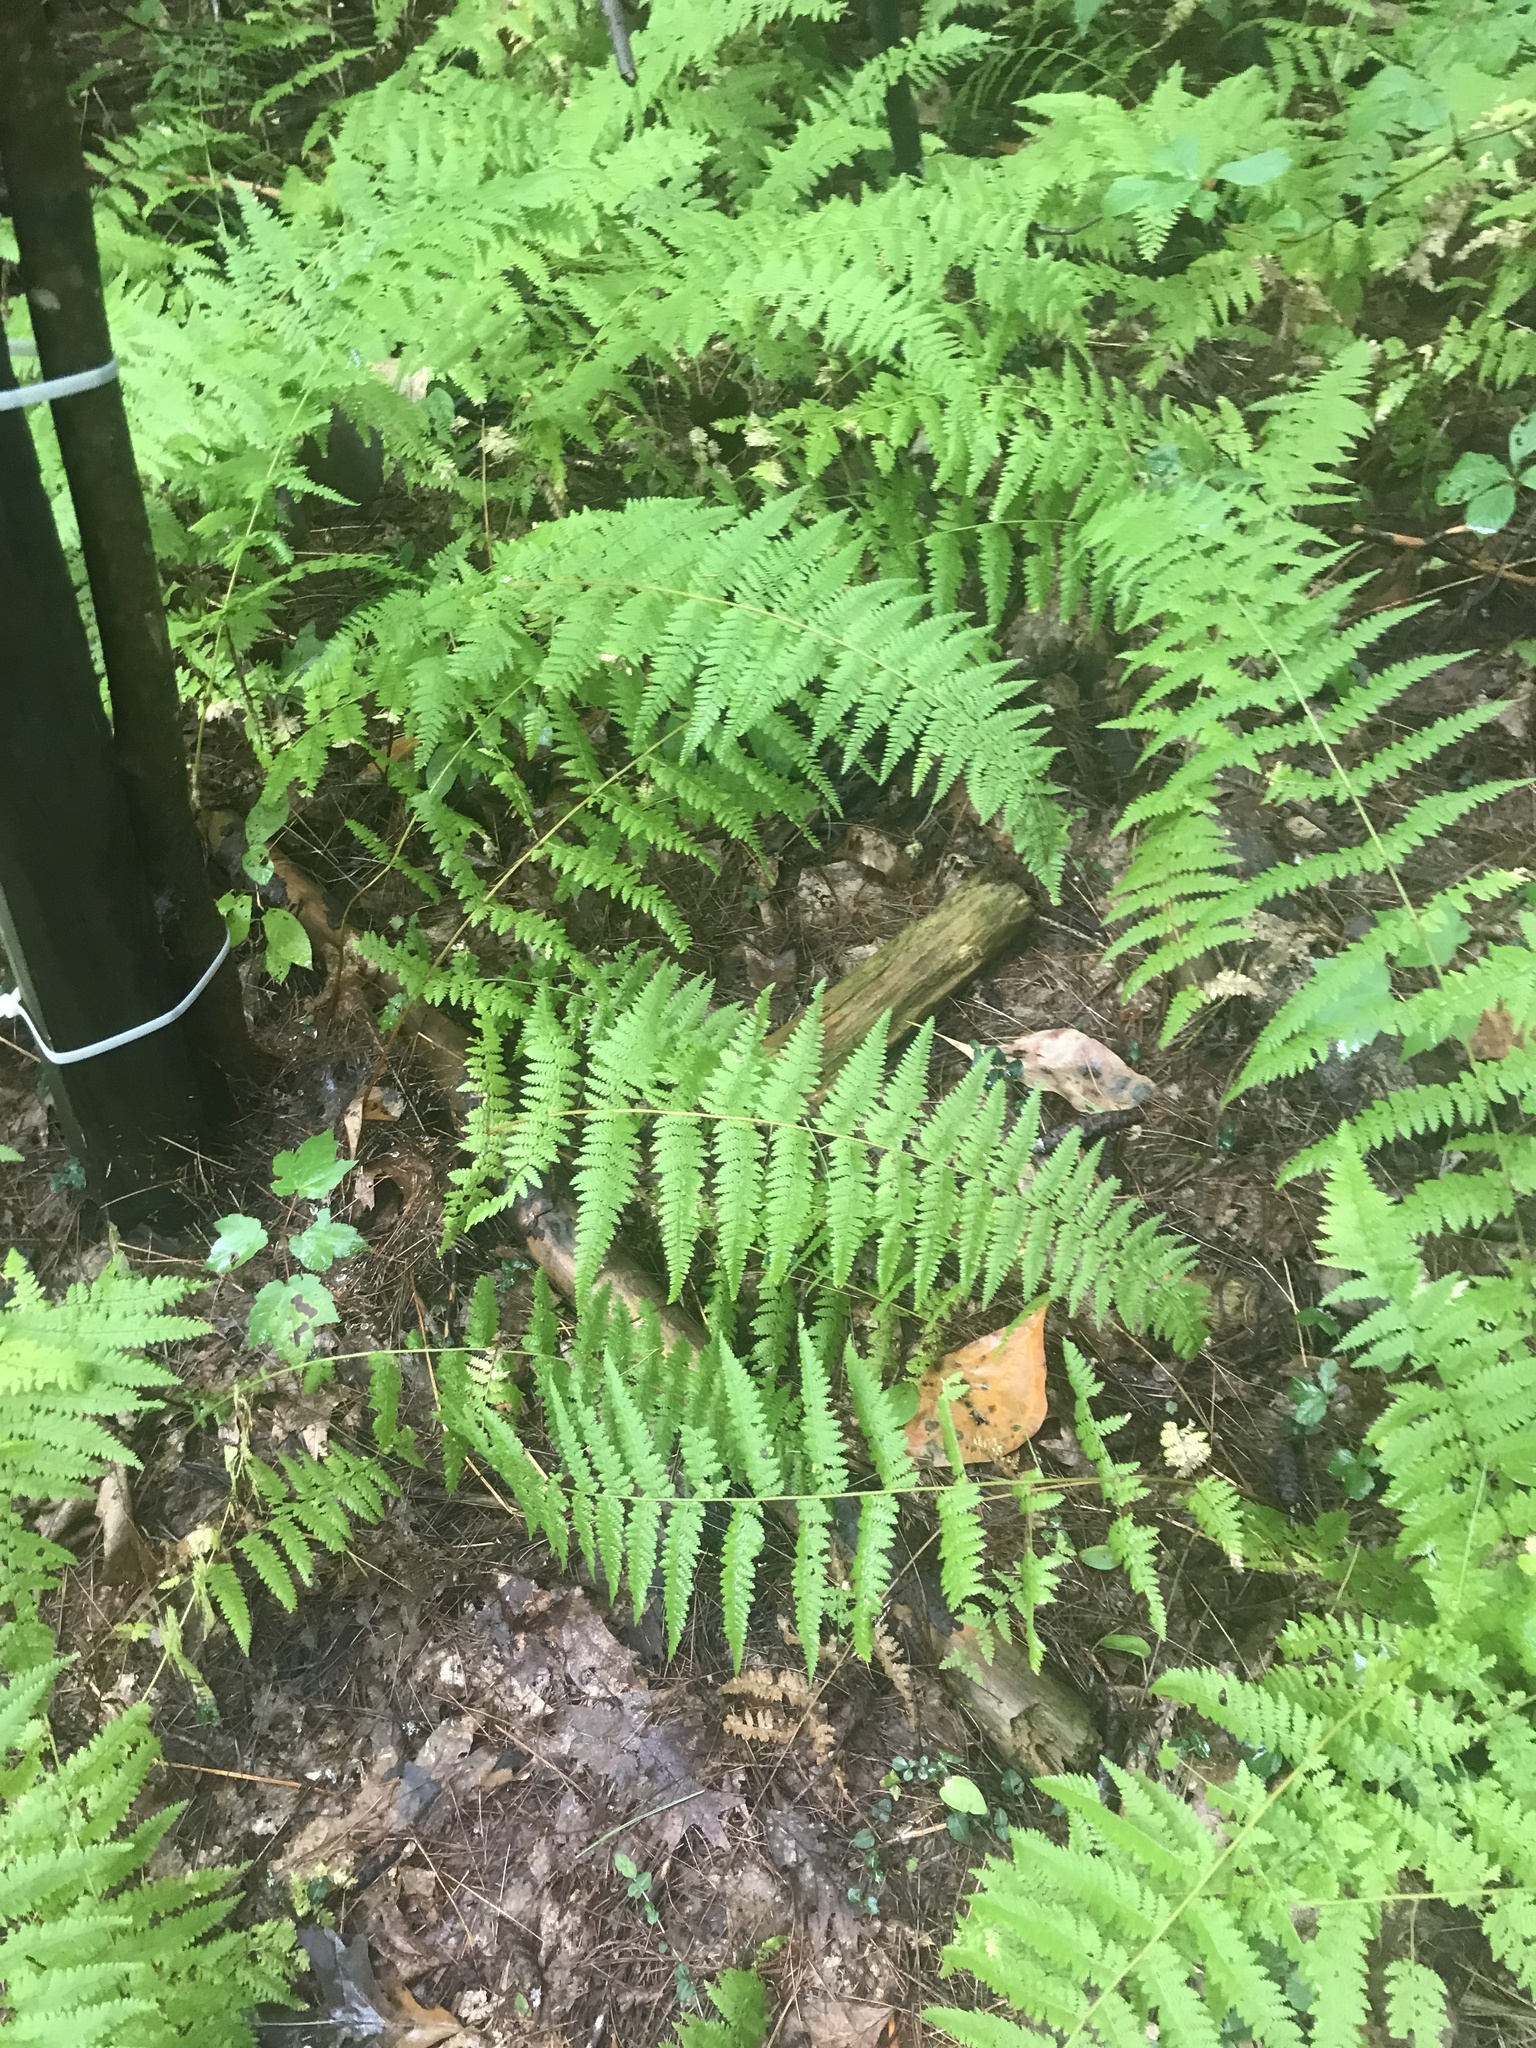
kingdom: Plantae
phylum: Tracheophyta
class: Polypodiopsida
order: Polypodiales
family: Dennstaedtiaceae
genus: Sitobolium
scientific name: Sitobolium punctilobum
